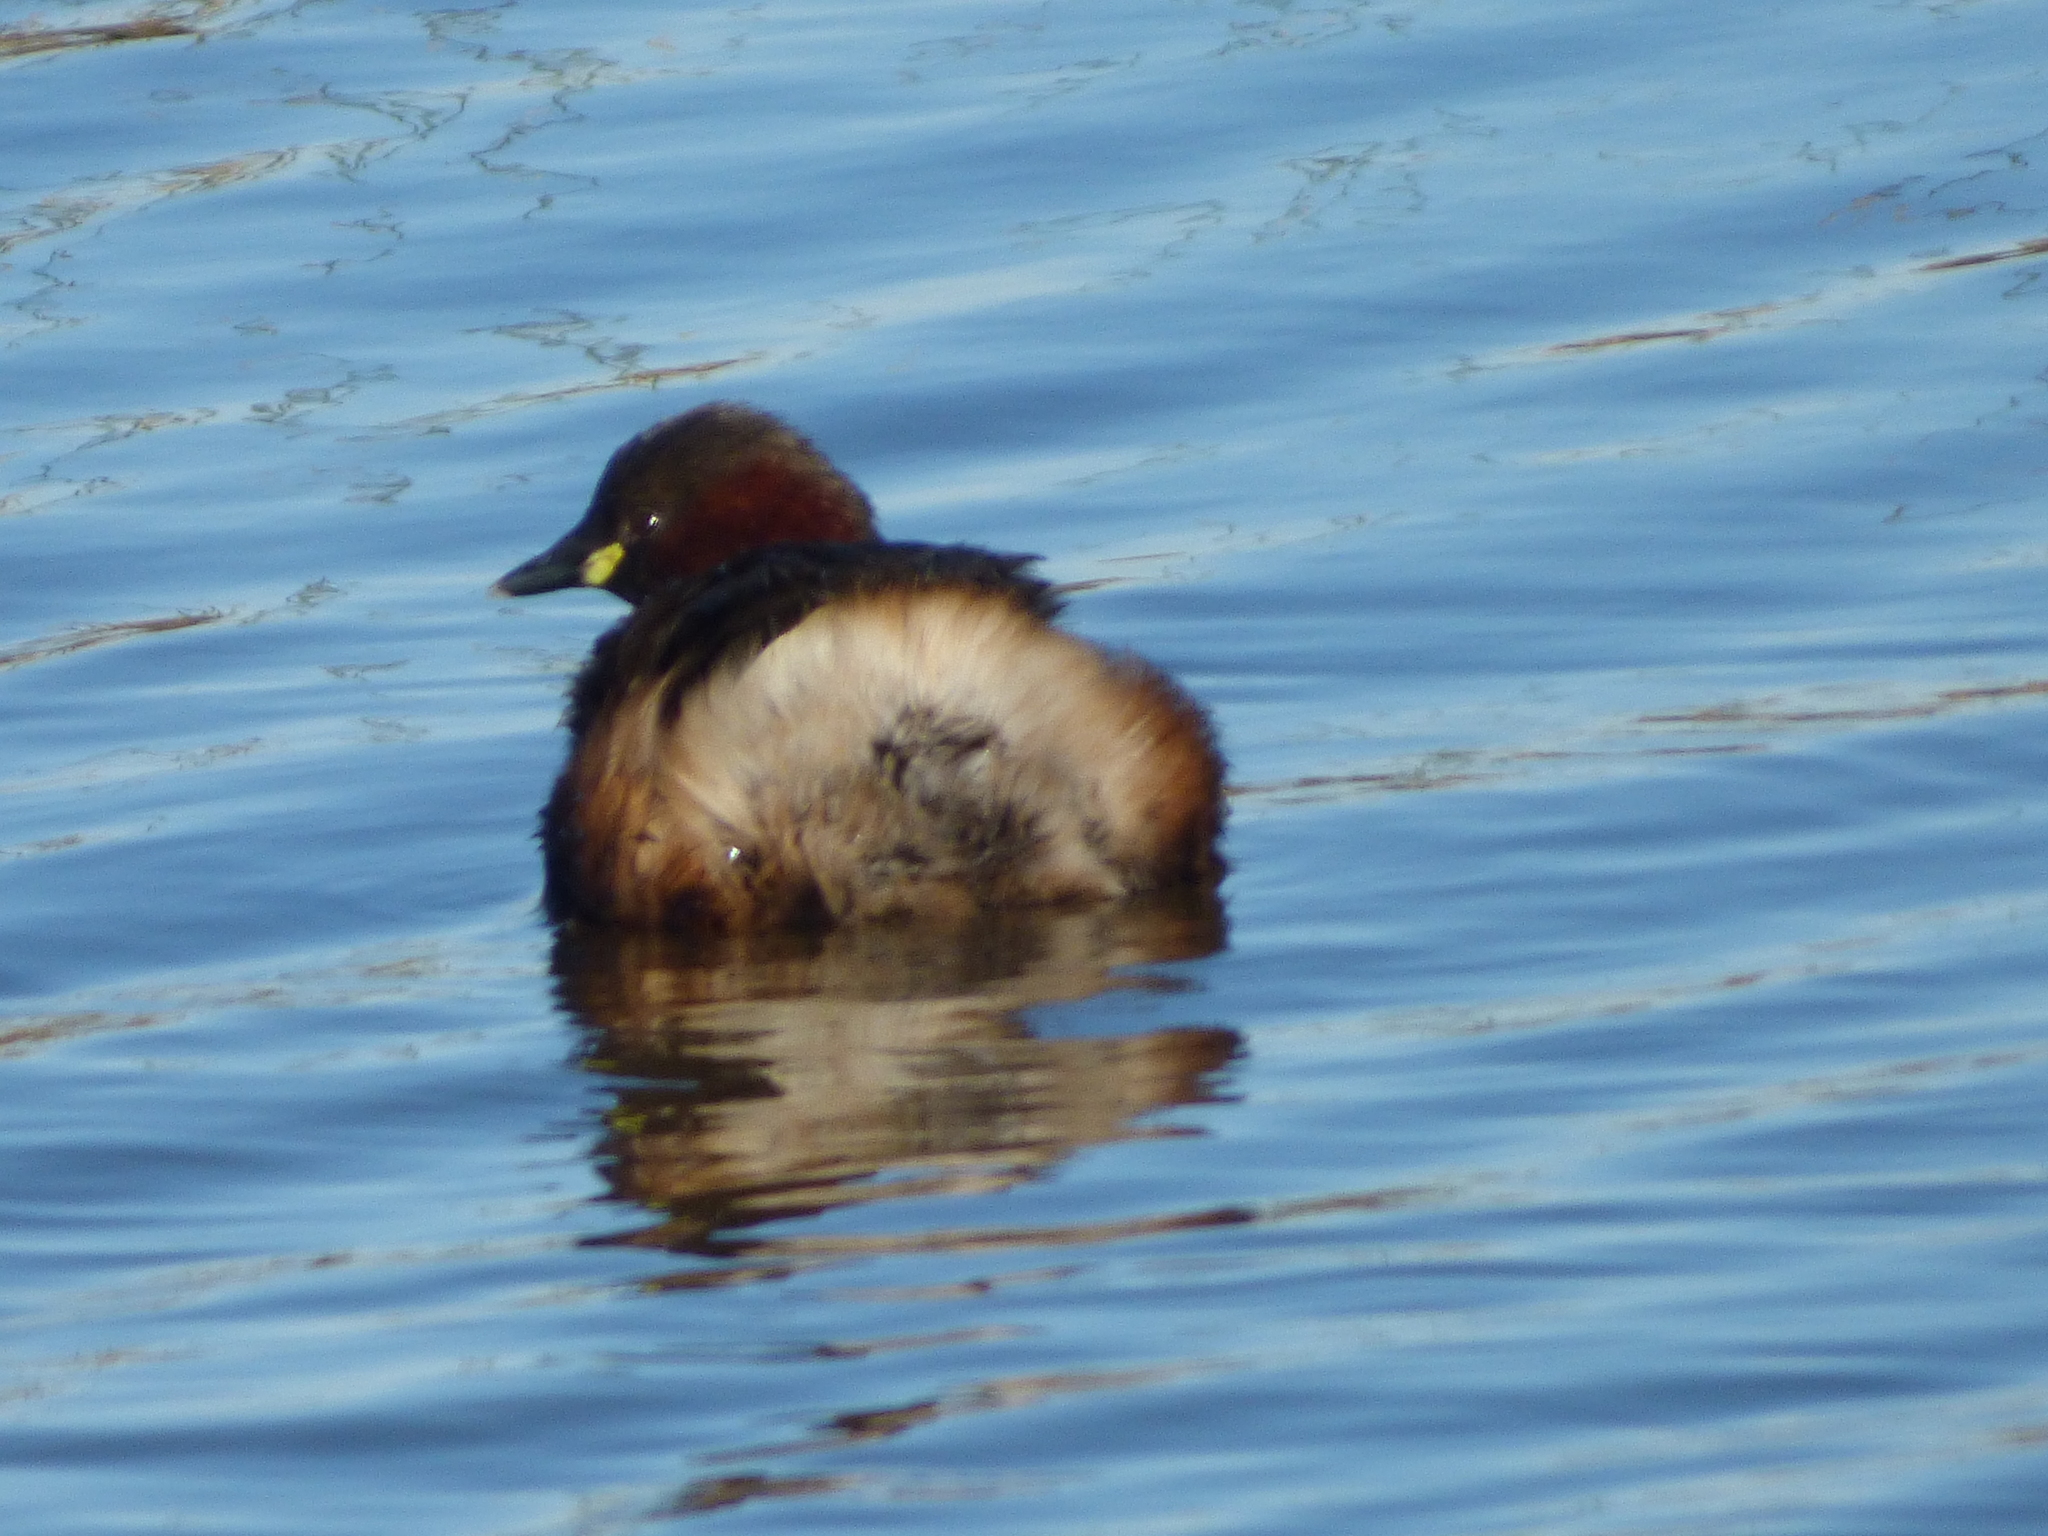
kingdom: Animalia
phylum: Chordata
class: Aves
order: Podicipediformes
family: Podicipedidae
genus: Tachybaptus
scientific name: Tachybaptus ruficollis
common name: Little grebe
